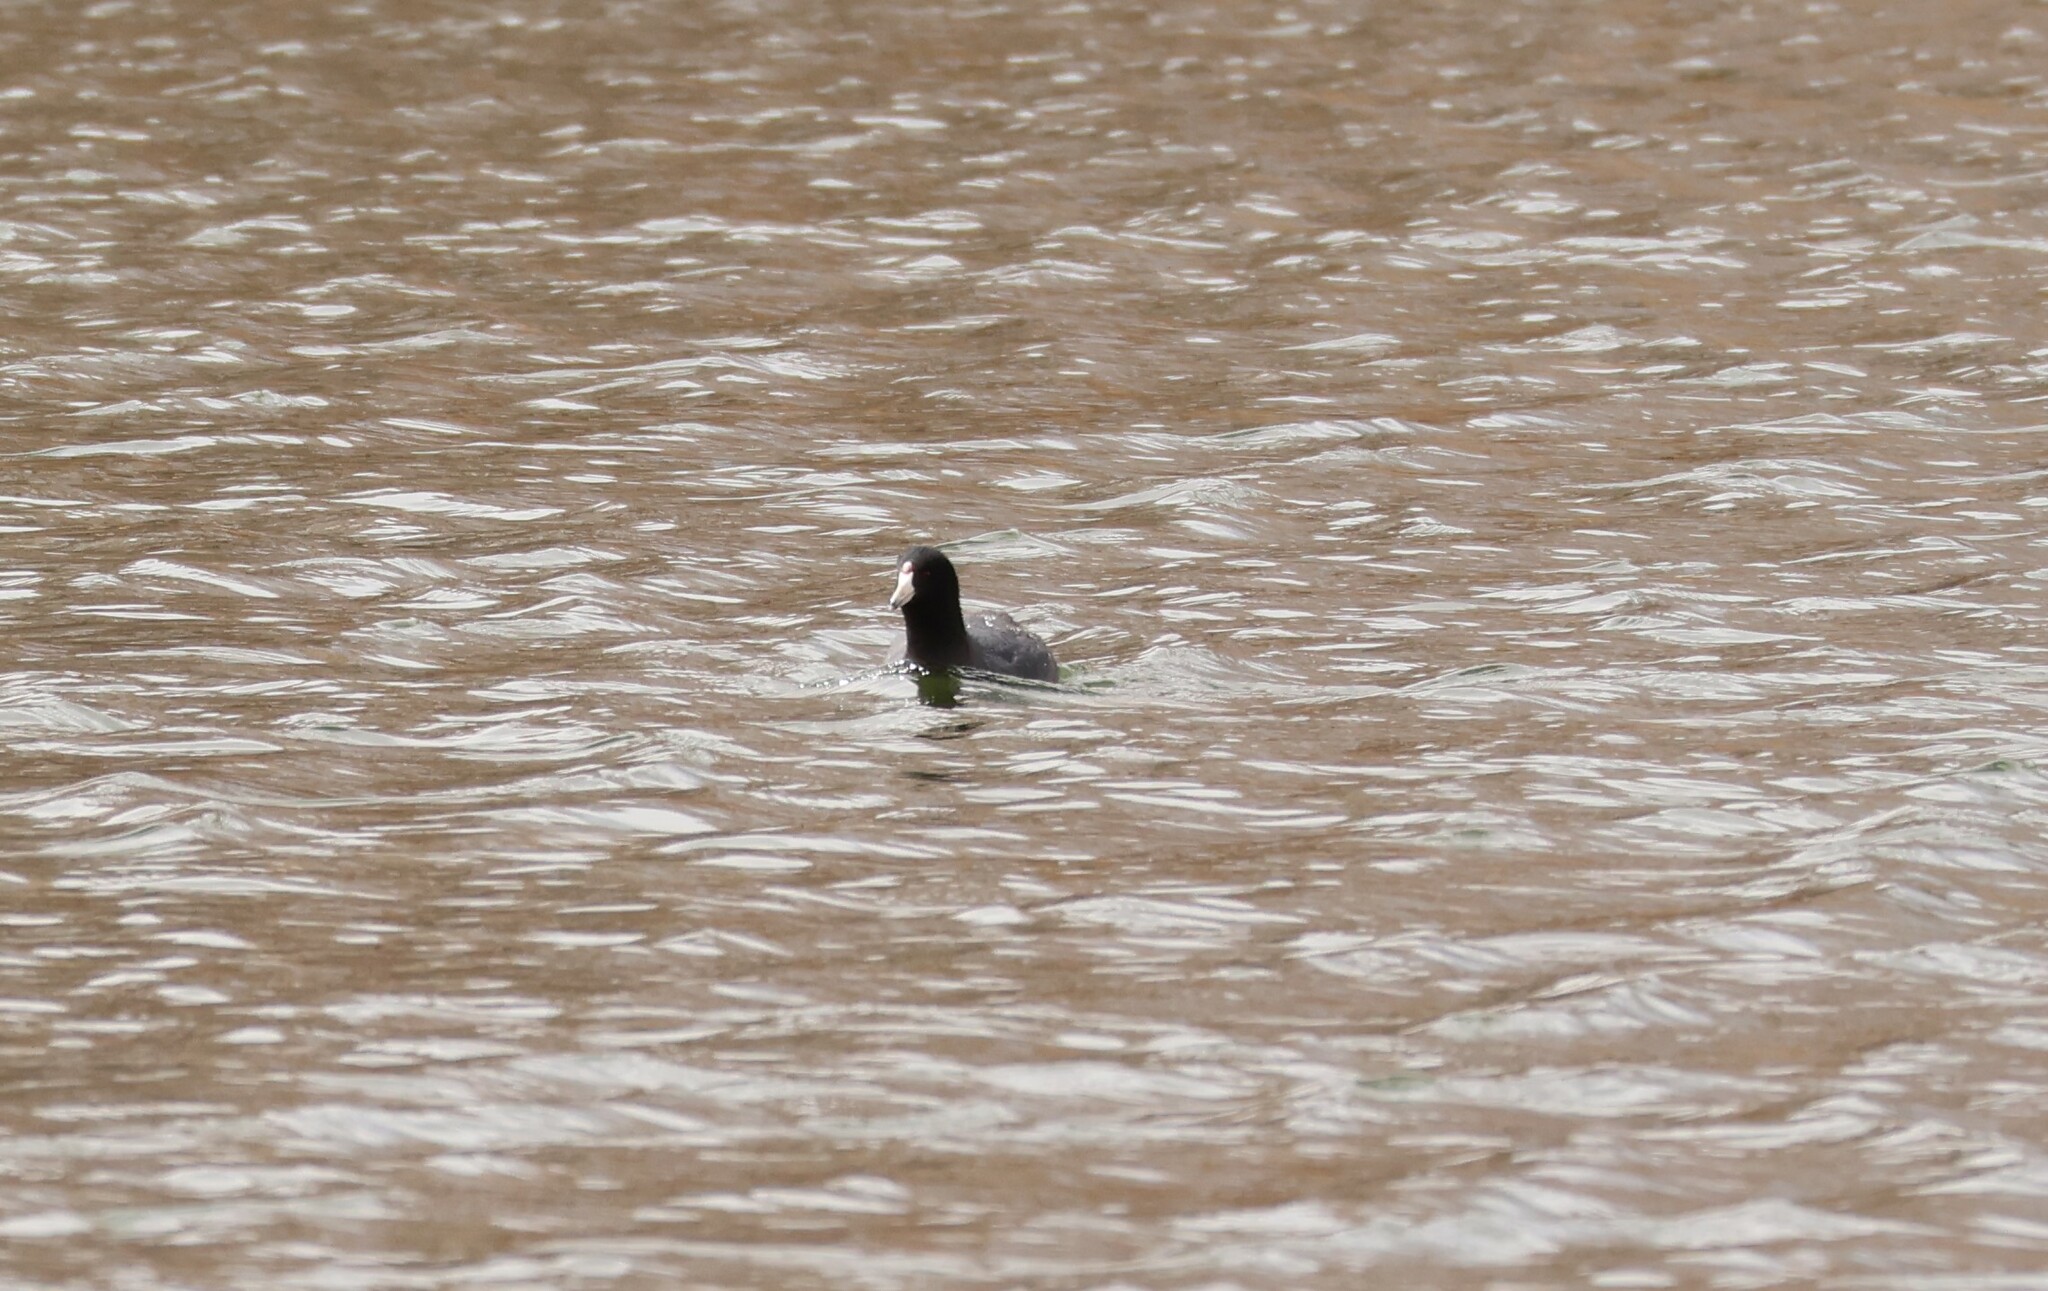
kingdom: Animalia
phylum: Chordata
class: Aves
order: Gruiformes
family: Rallidae
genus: Fulica
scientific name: Fulica americana
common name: American coot
